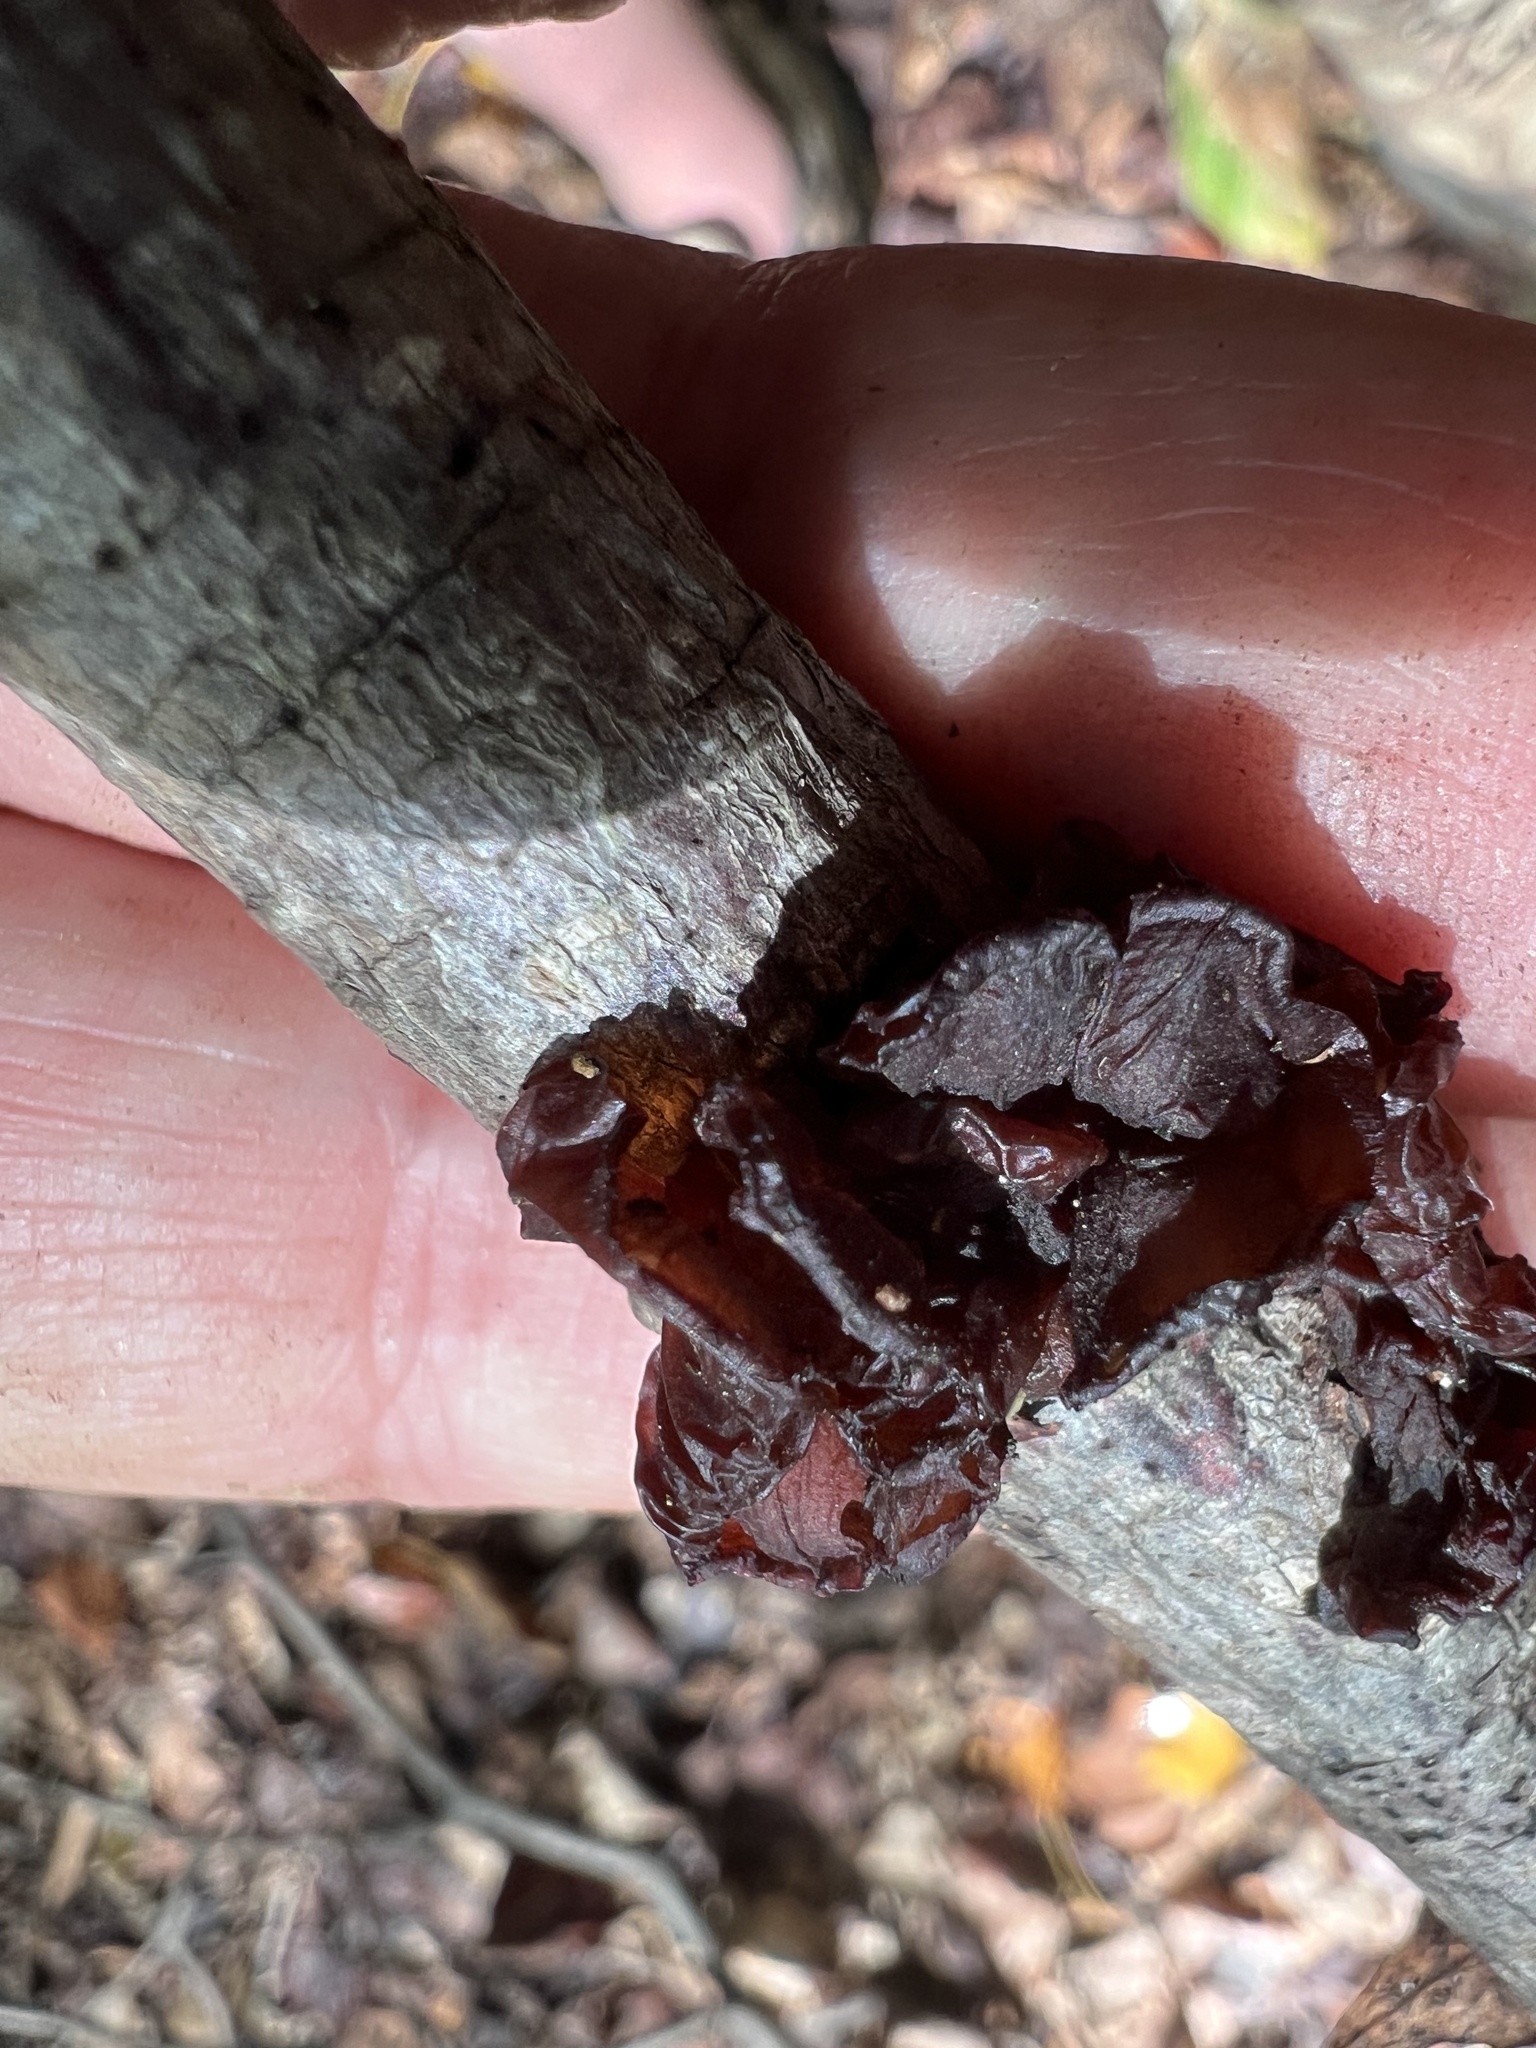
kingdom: Fungi
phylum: Basidiomycota
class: Agaricomycetes
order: Auriculariales
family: Auriculariaceae
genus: Exidia
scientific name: Exidia
